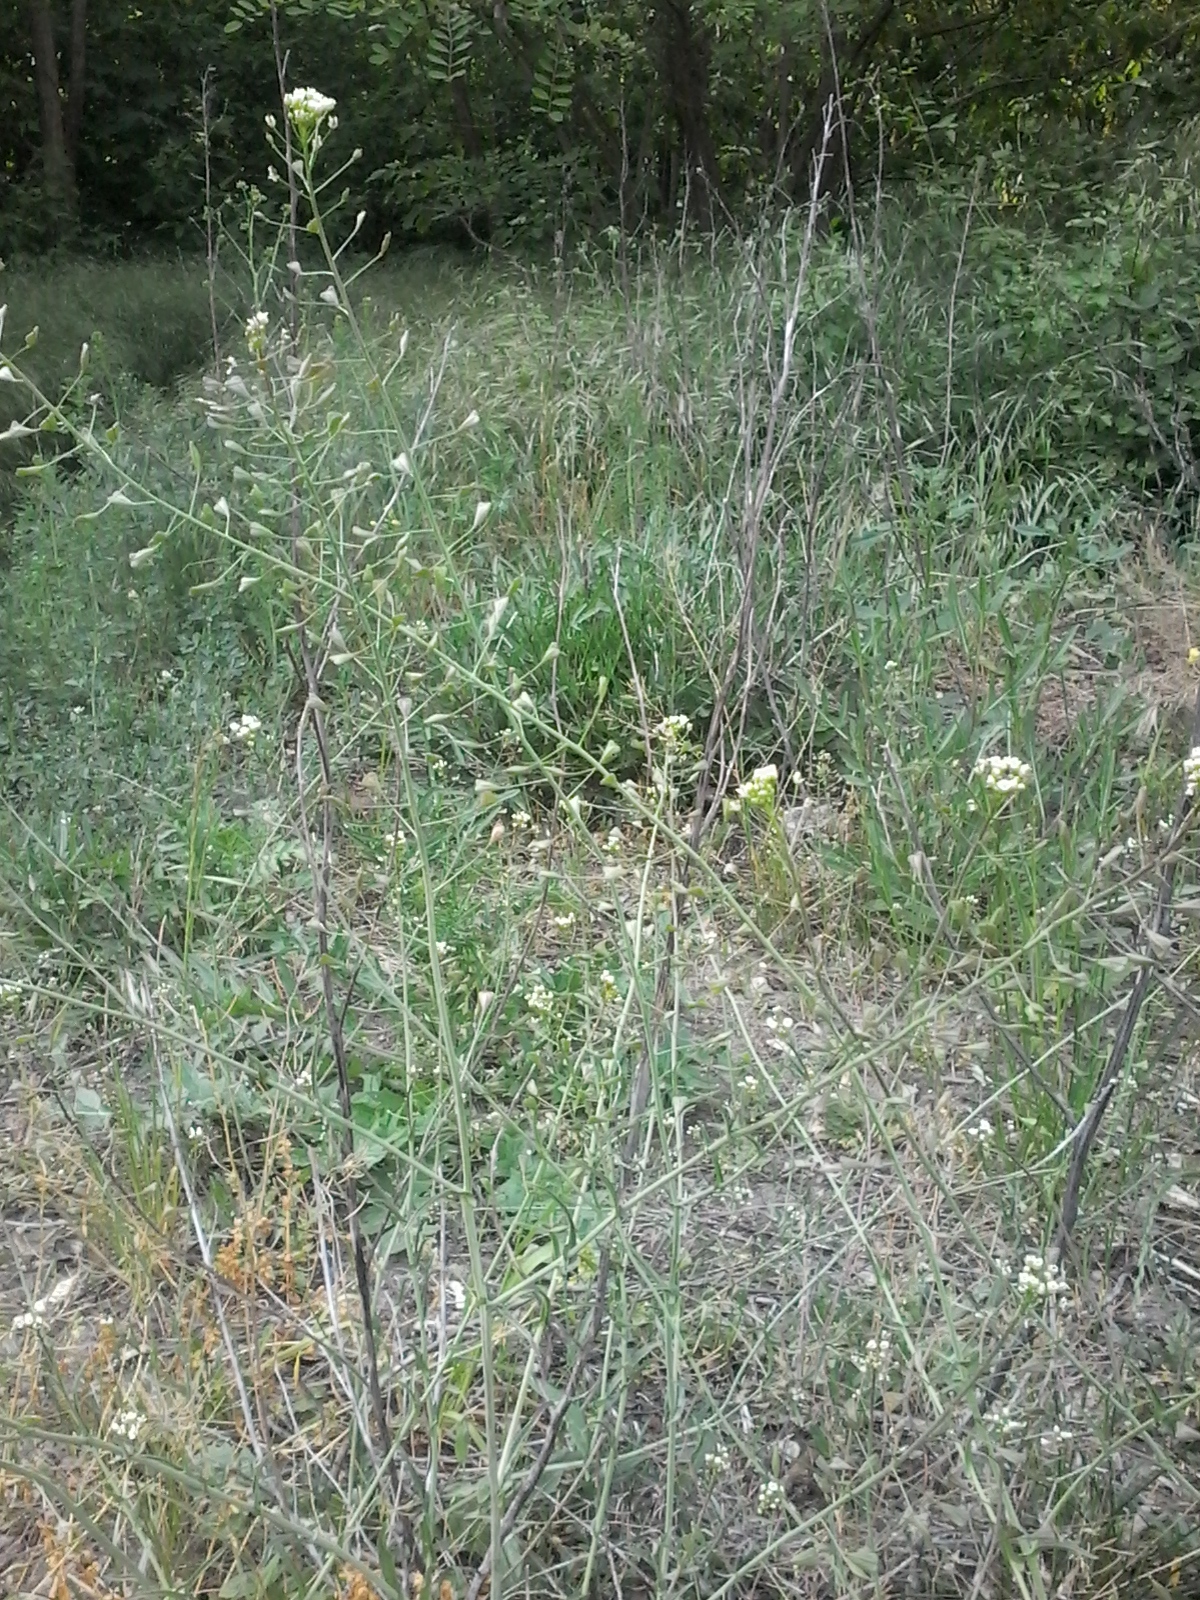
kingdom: Plantae
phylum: Tracheophyta
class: Magnoliopsida
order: Brassicales
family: Brassicaceae
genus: Capsella
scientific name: Capsella bursa-pastoris
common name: Shepherd's purse
